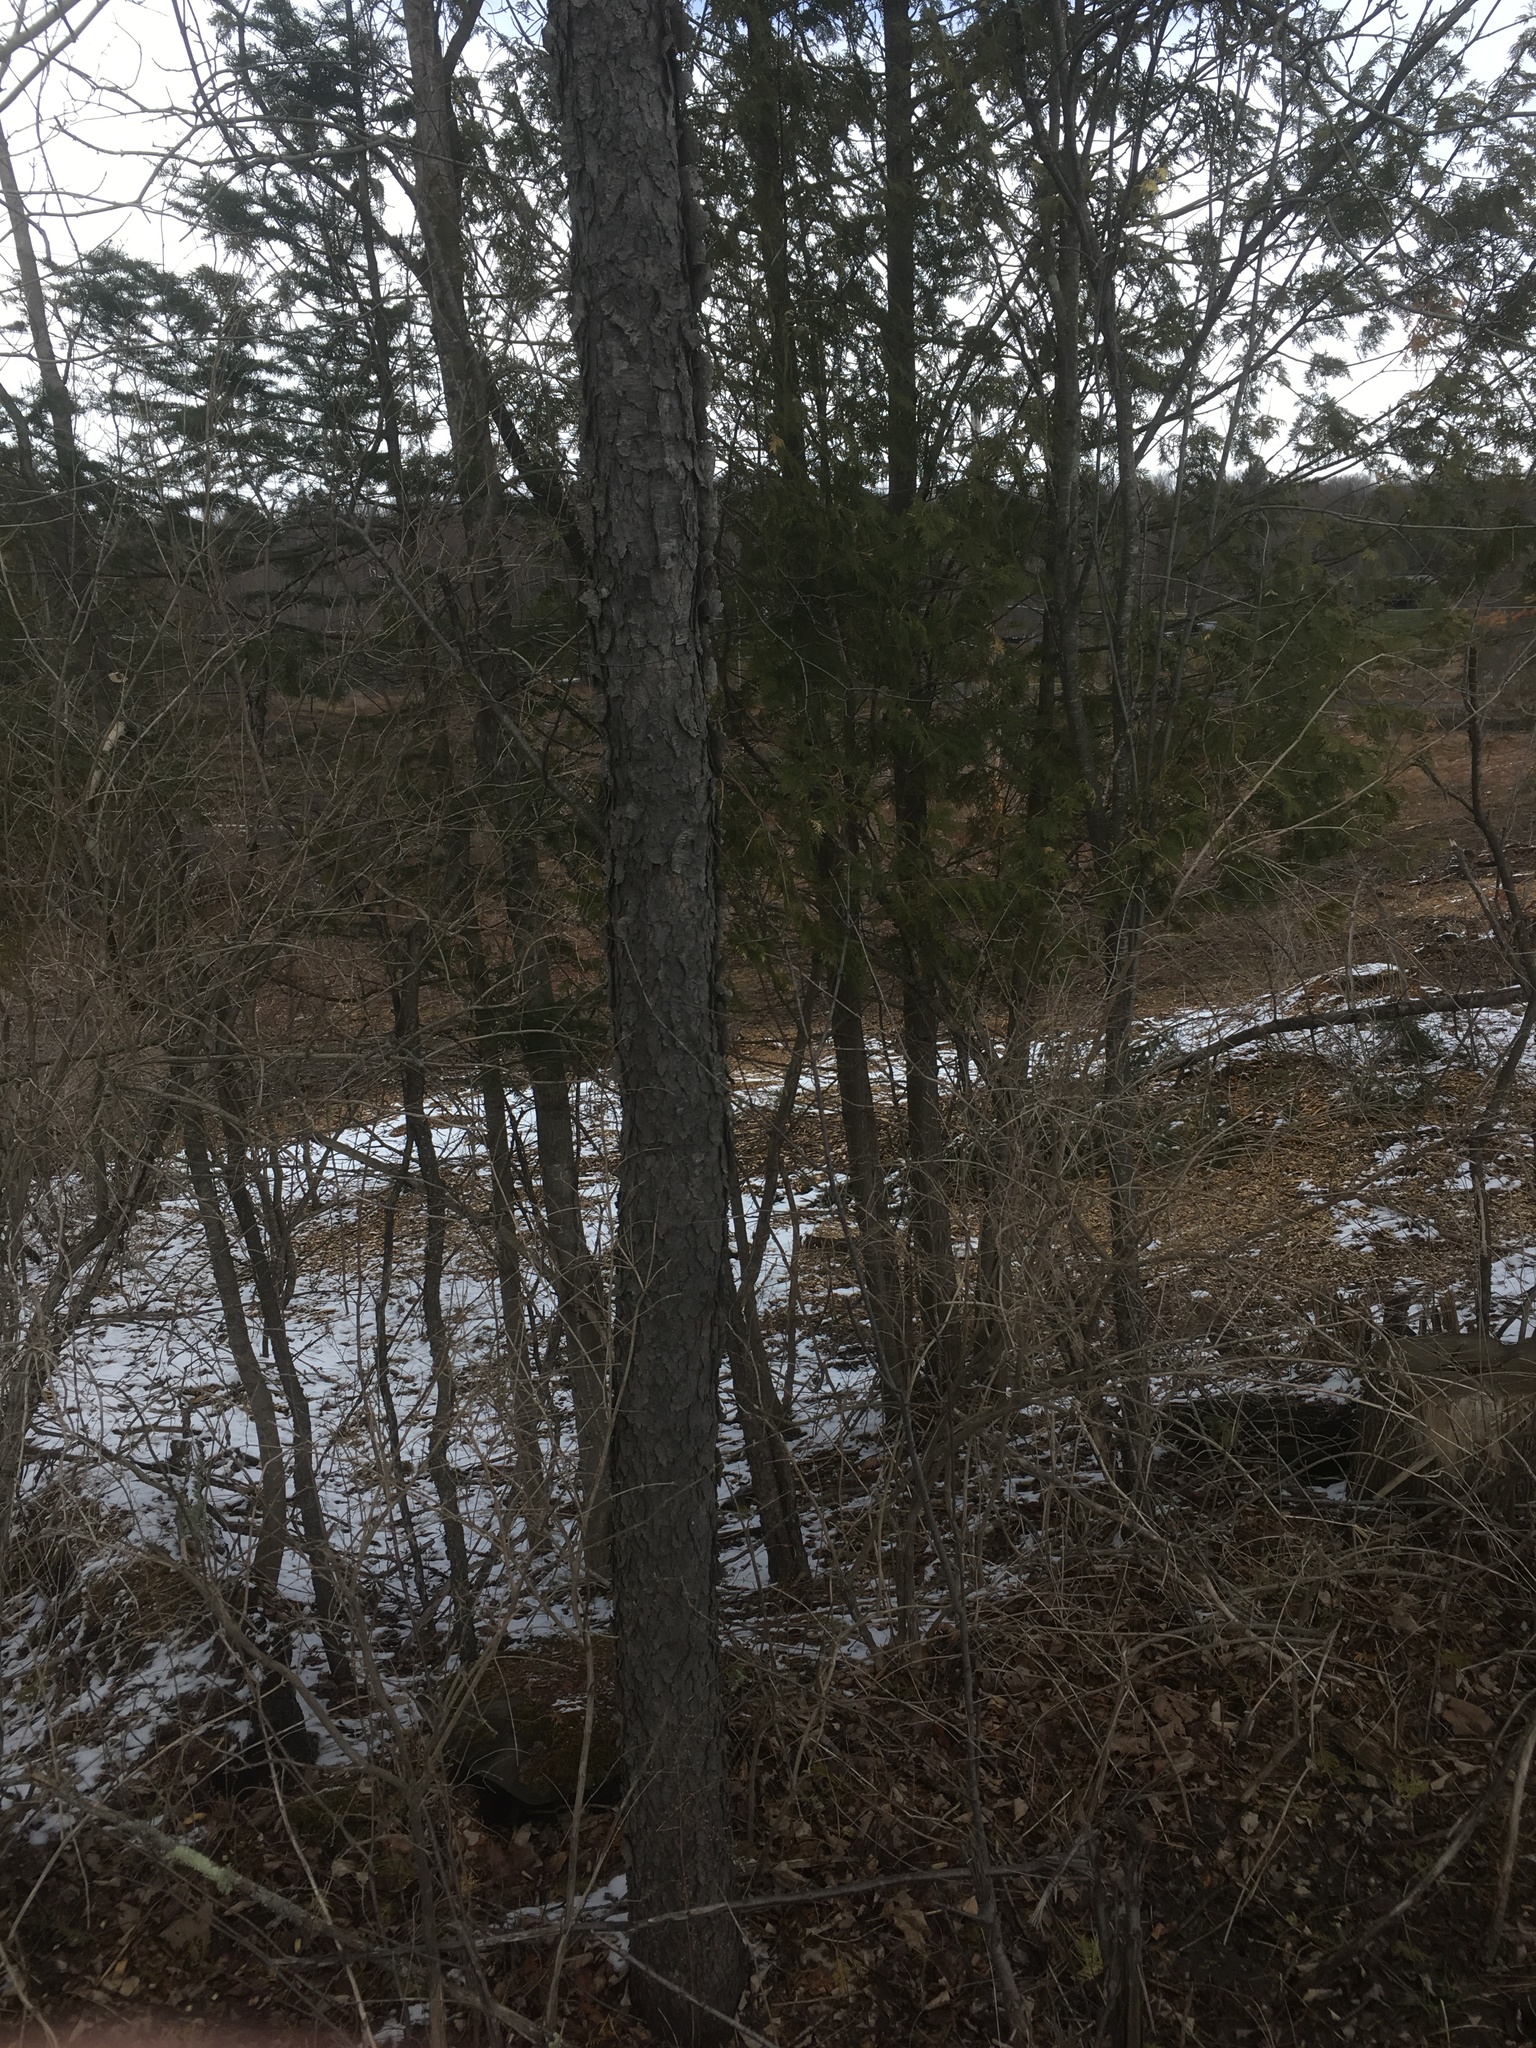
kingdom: Plantae
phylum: Tracheophyta
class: Magnoliopsida
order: Rosales
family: Rosaceae
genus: Prunus
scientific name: Prunus serotina
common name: Black cherry
